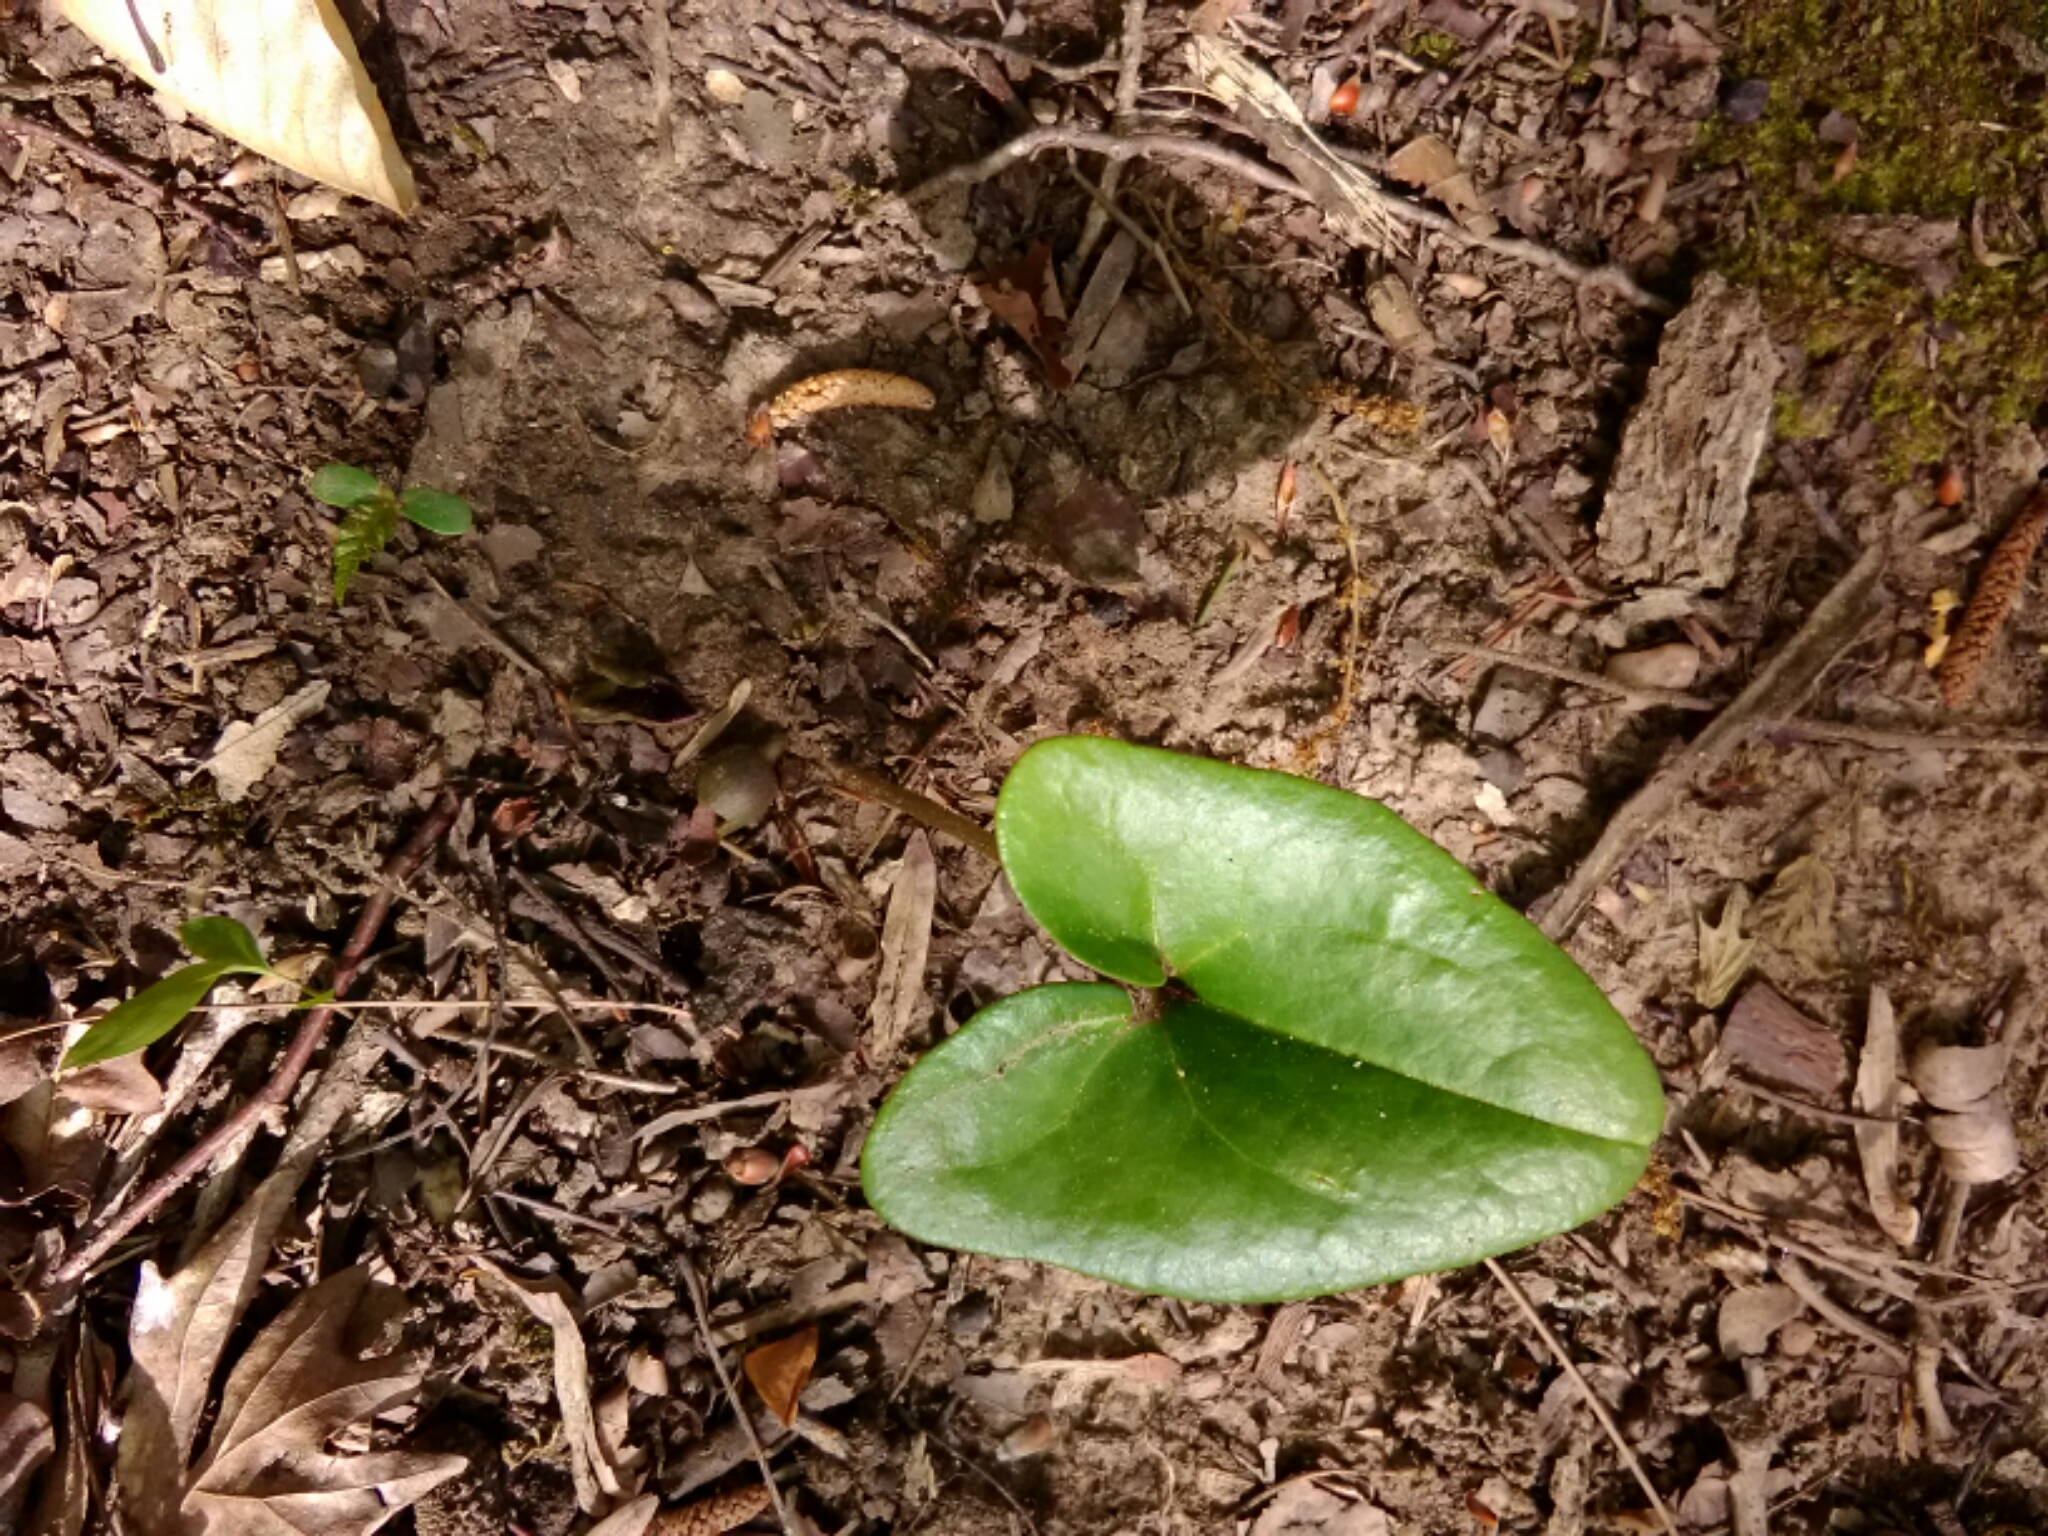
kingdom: Plantae
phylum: Tracheophyta
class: Magnoliopsida
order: Piperales
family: Aristolochiaceae
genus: Hexastylis
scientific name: Hexastylis arifolia
